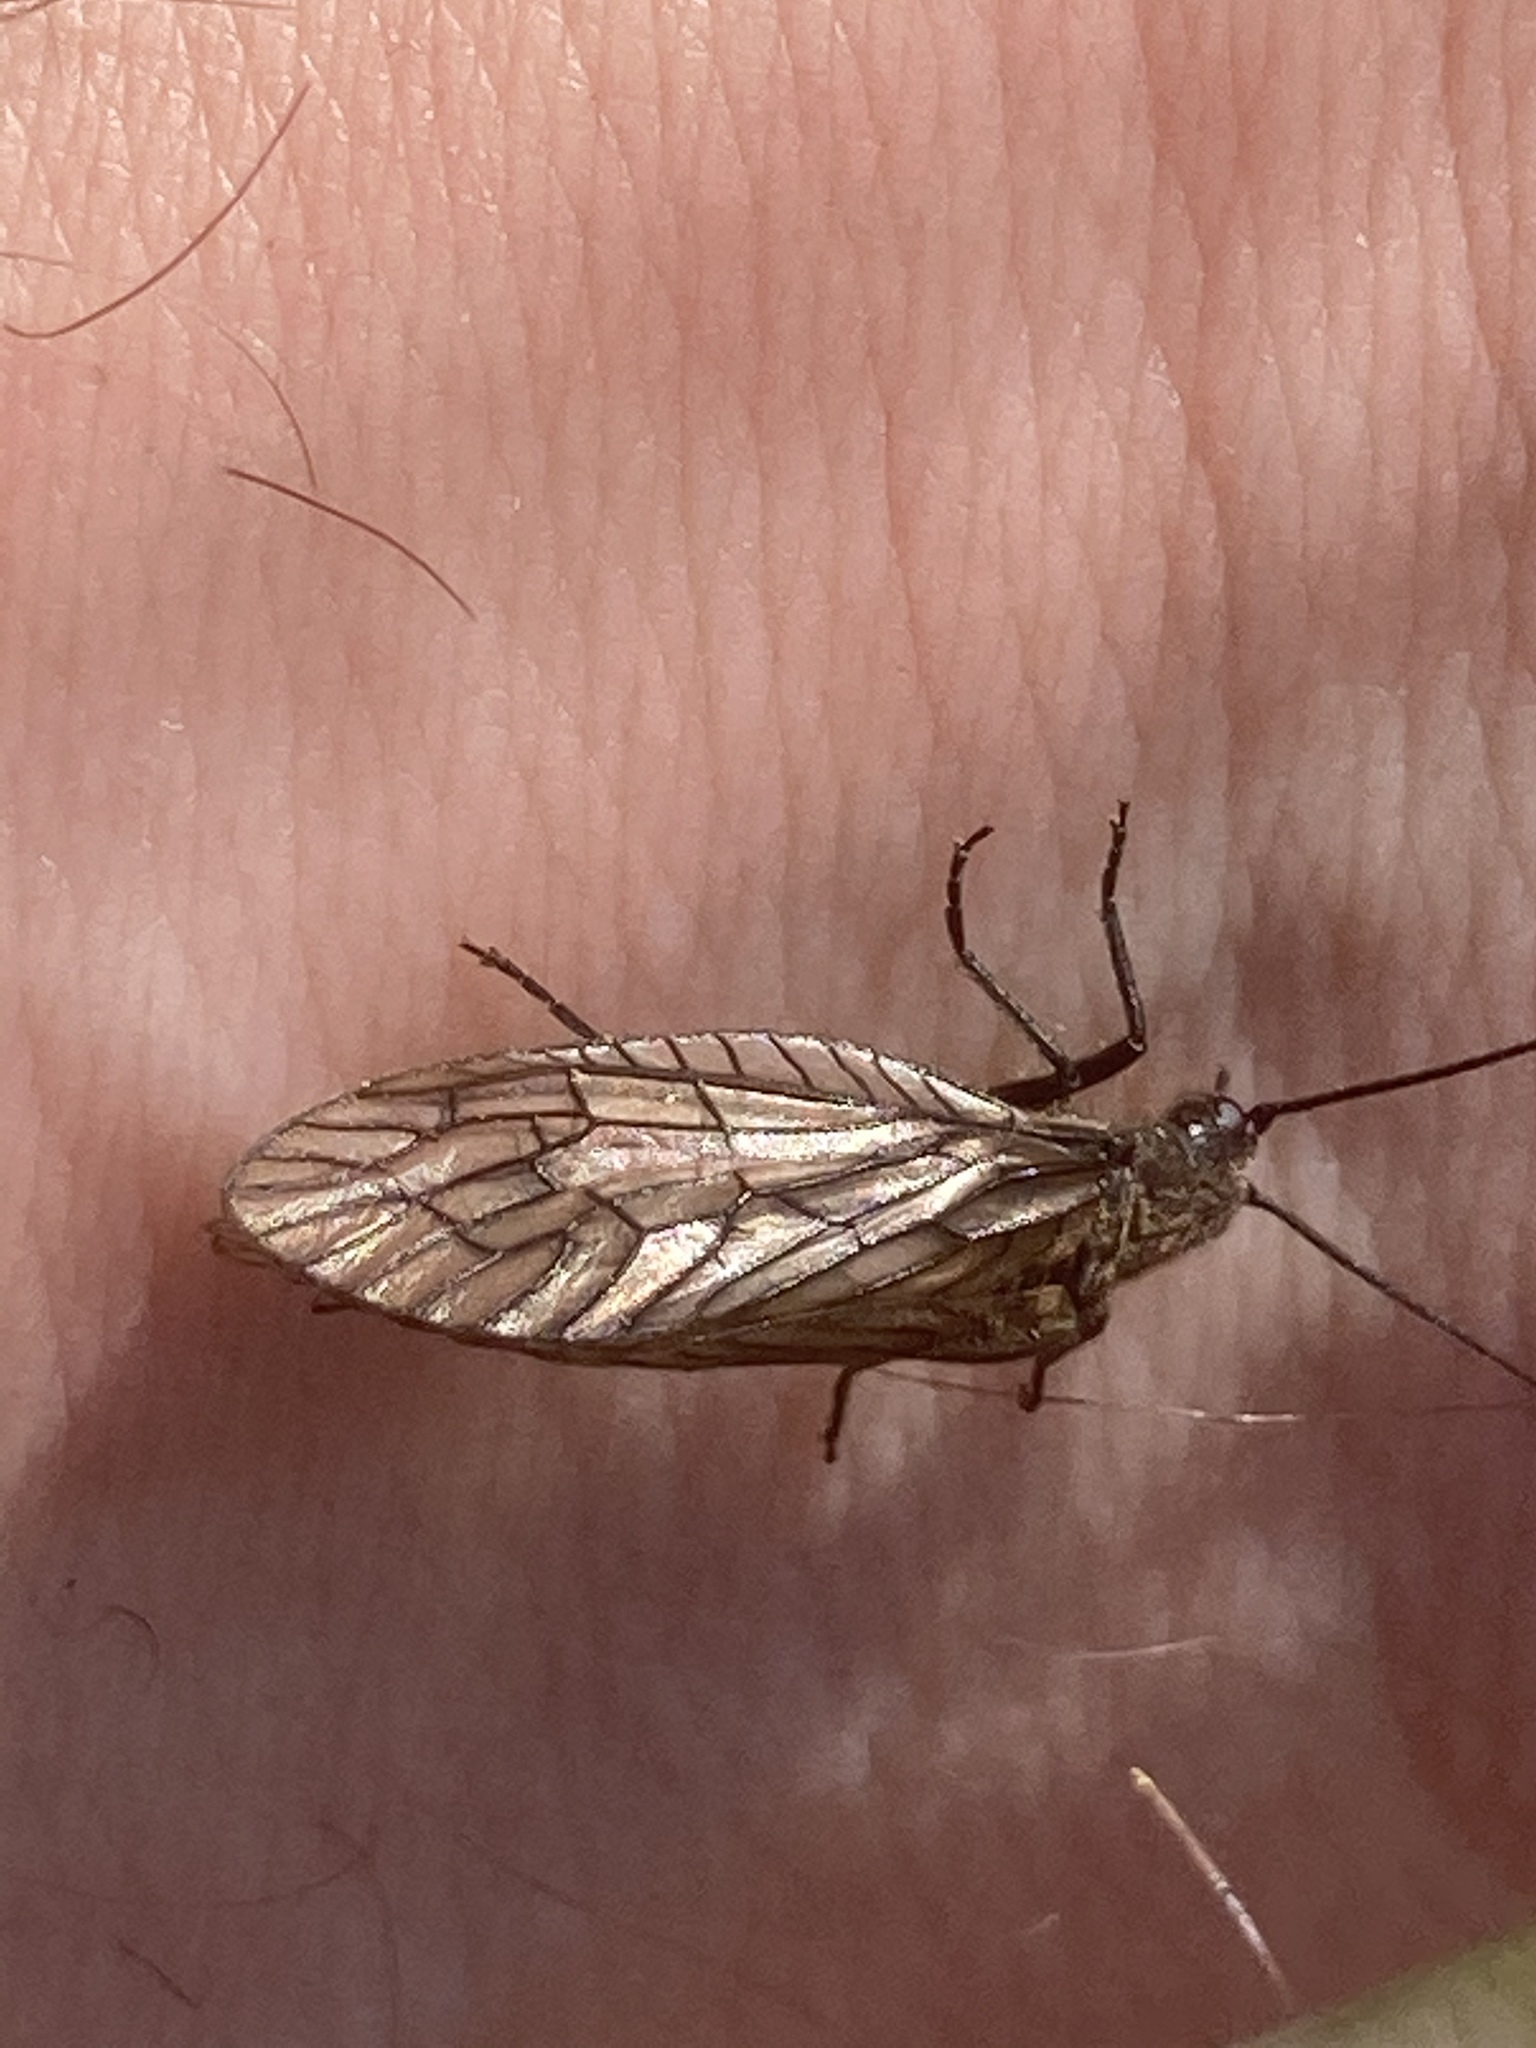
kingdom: Animalia
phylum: Arthropoda
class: Insecta
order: Megaloptera
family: Sialidae
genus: Sialis
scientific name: Sialis
